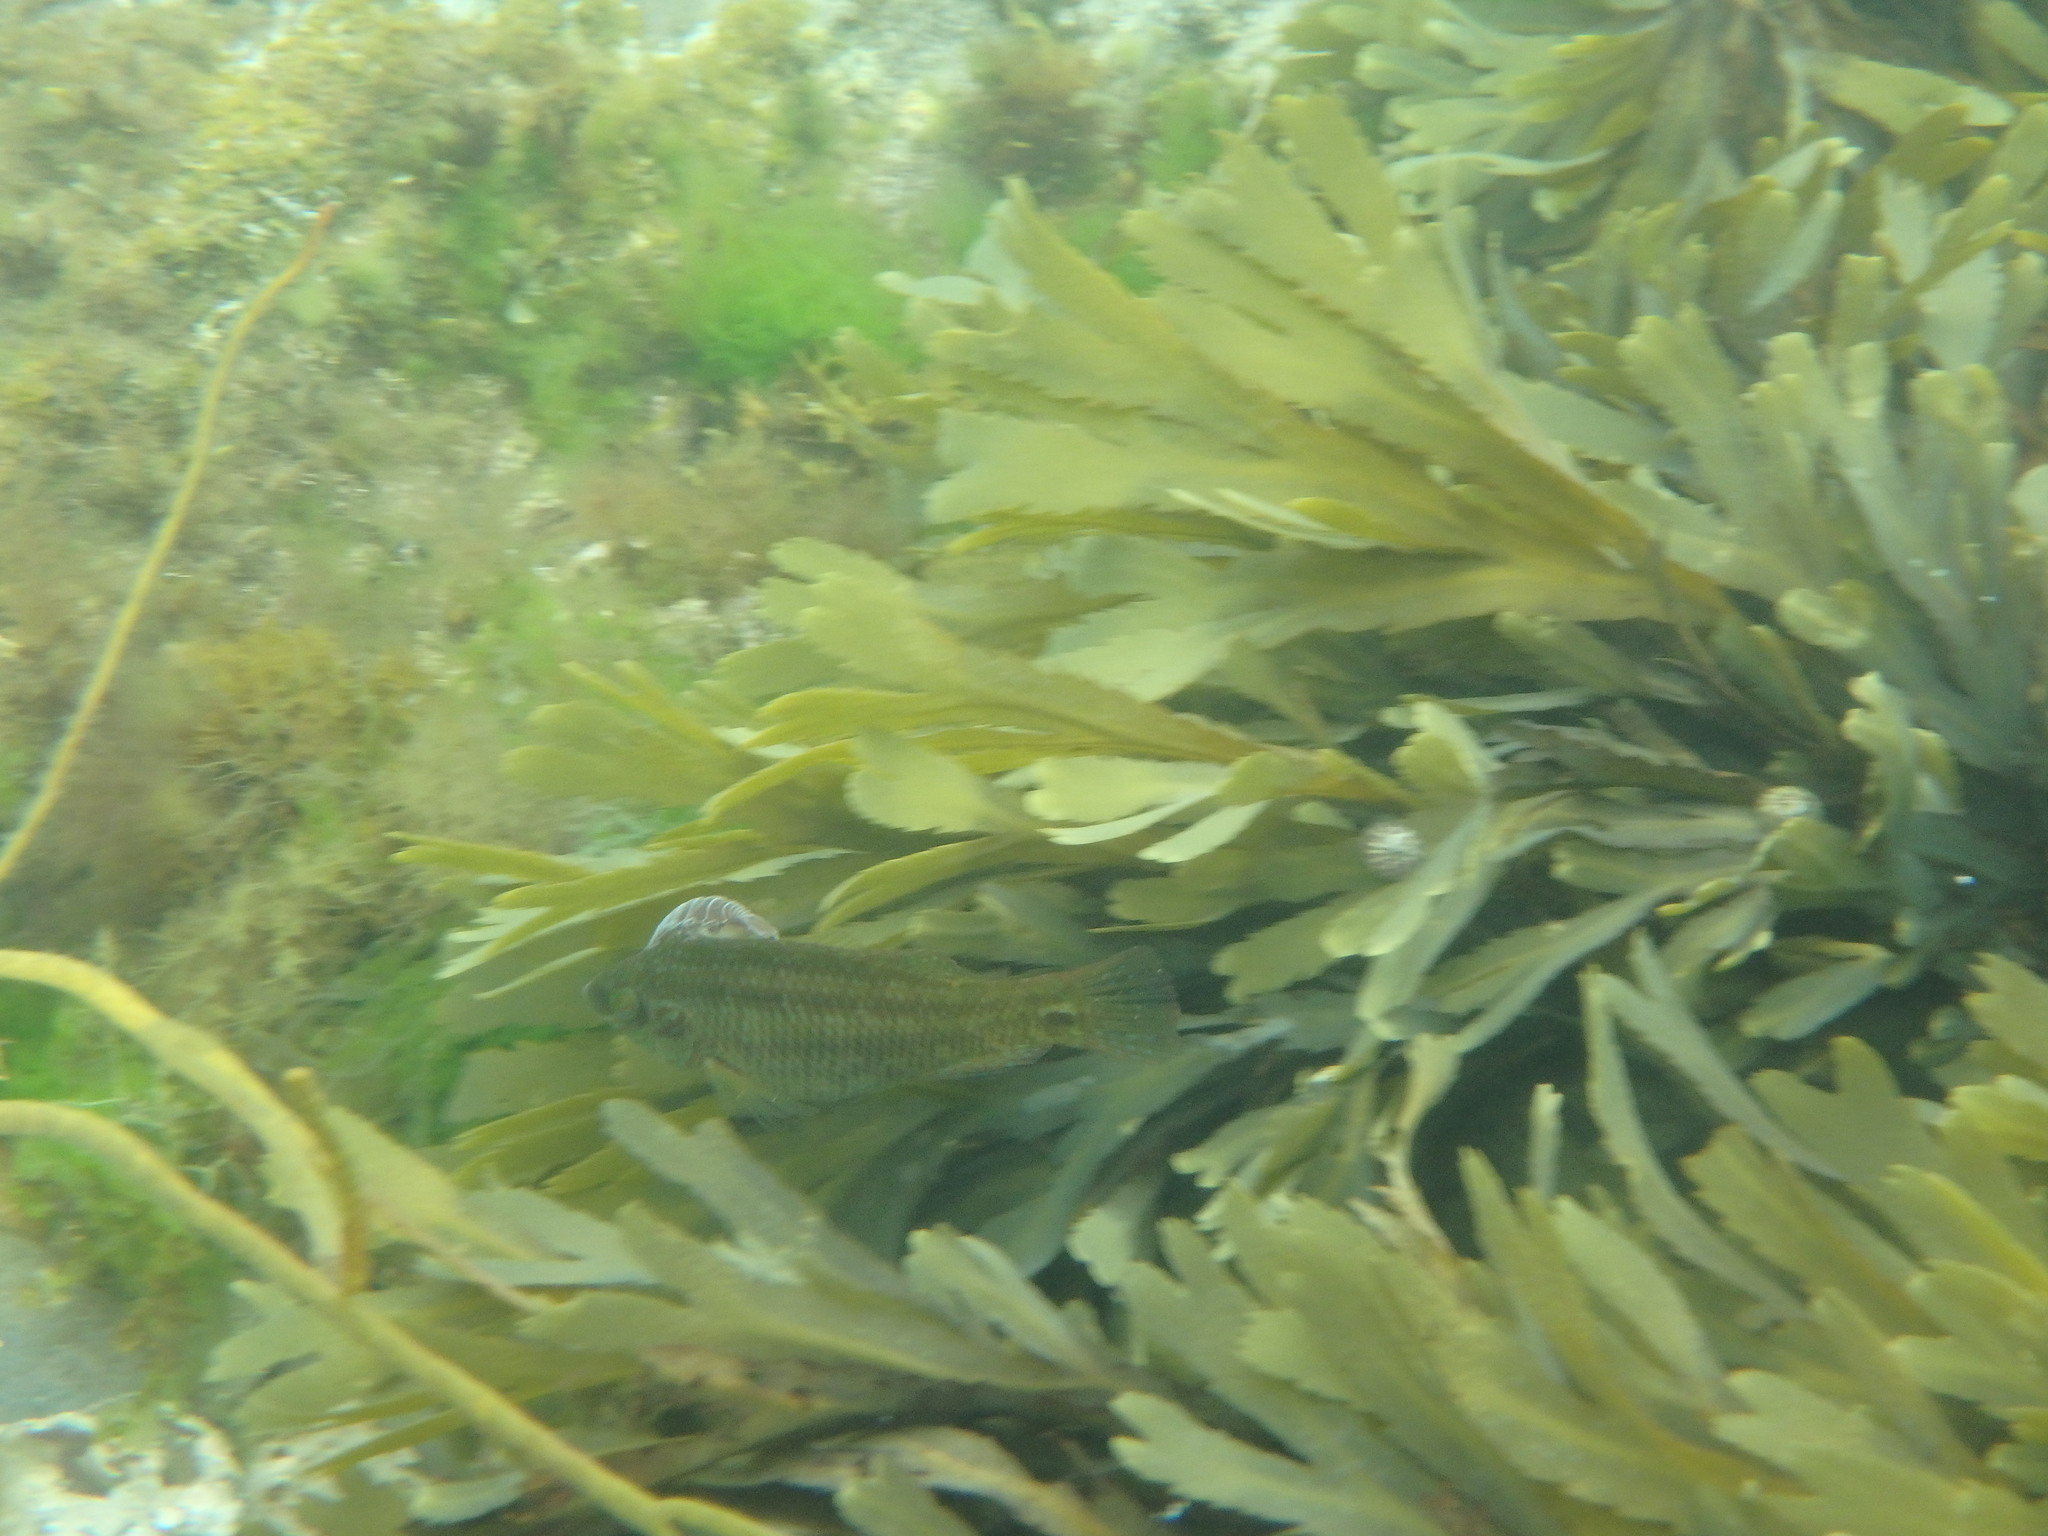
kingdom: Animalia
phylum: Chordata
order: Perciformes
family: Labridae
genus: Symphodus
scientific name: Symphodus melops
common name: Corkwing
